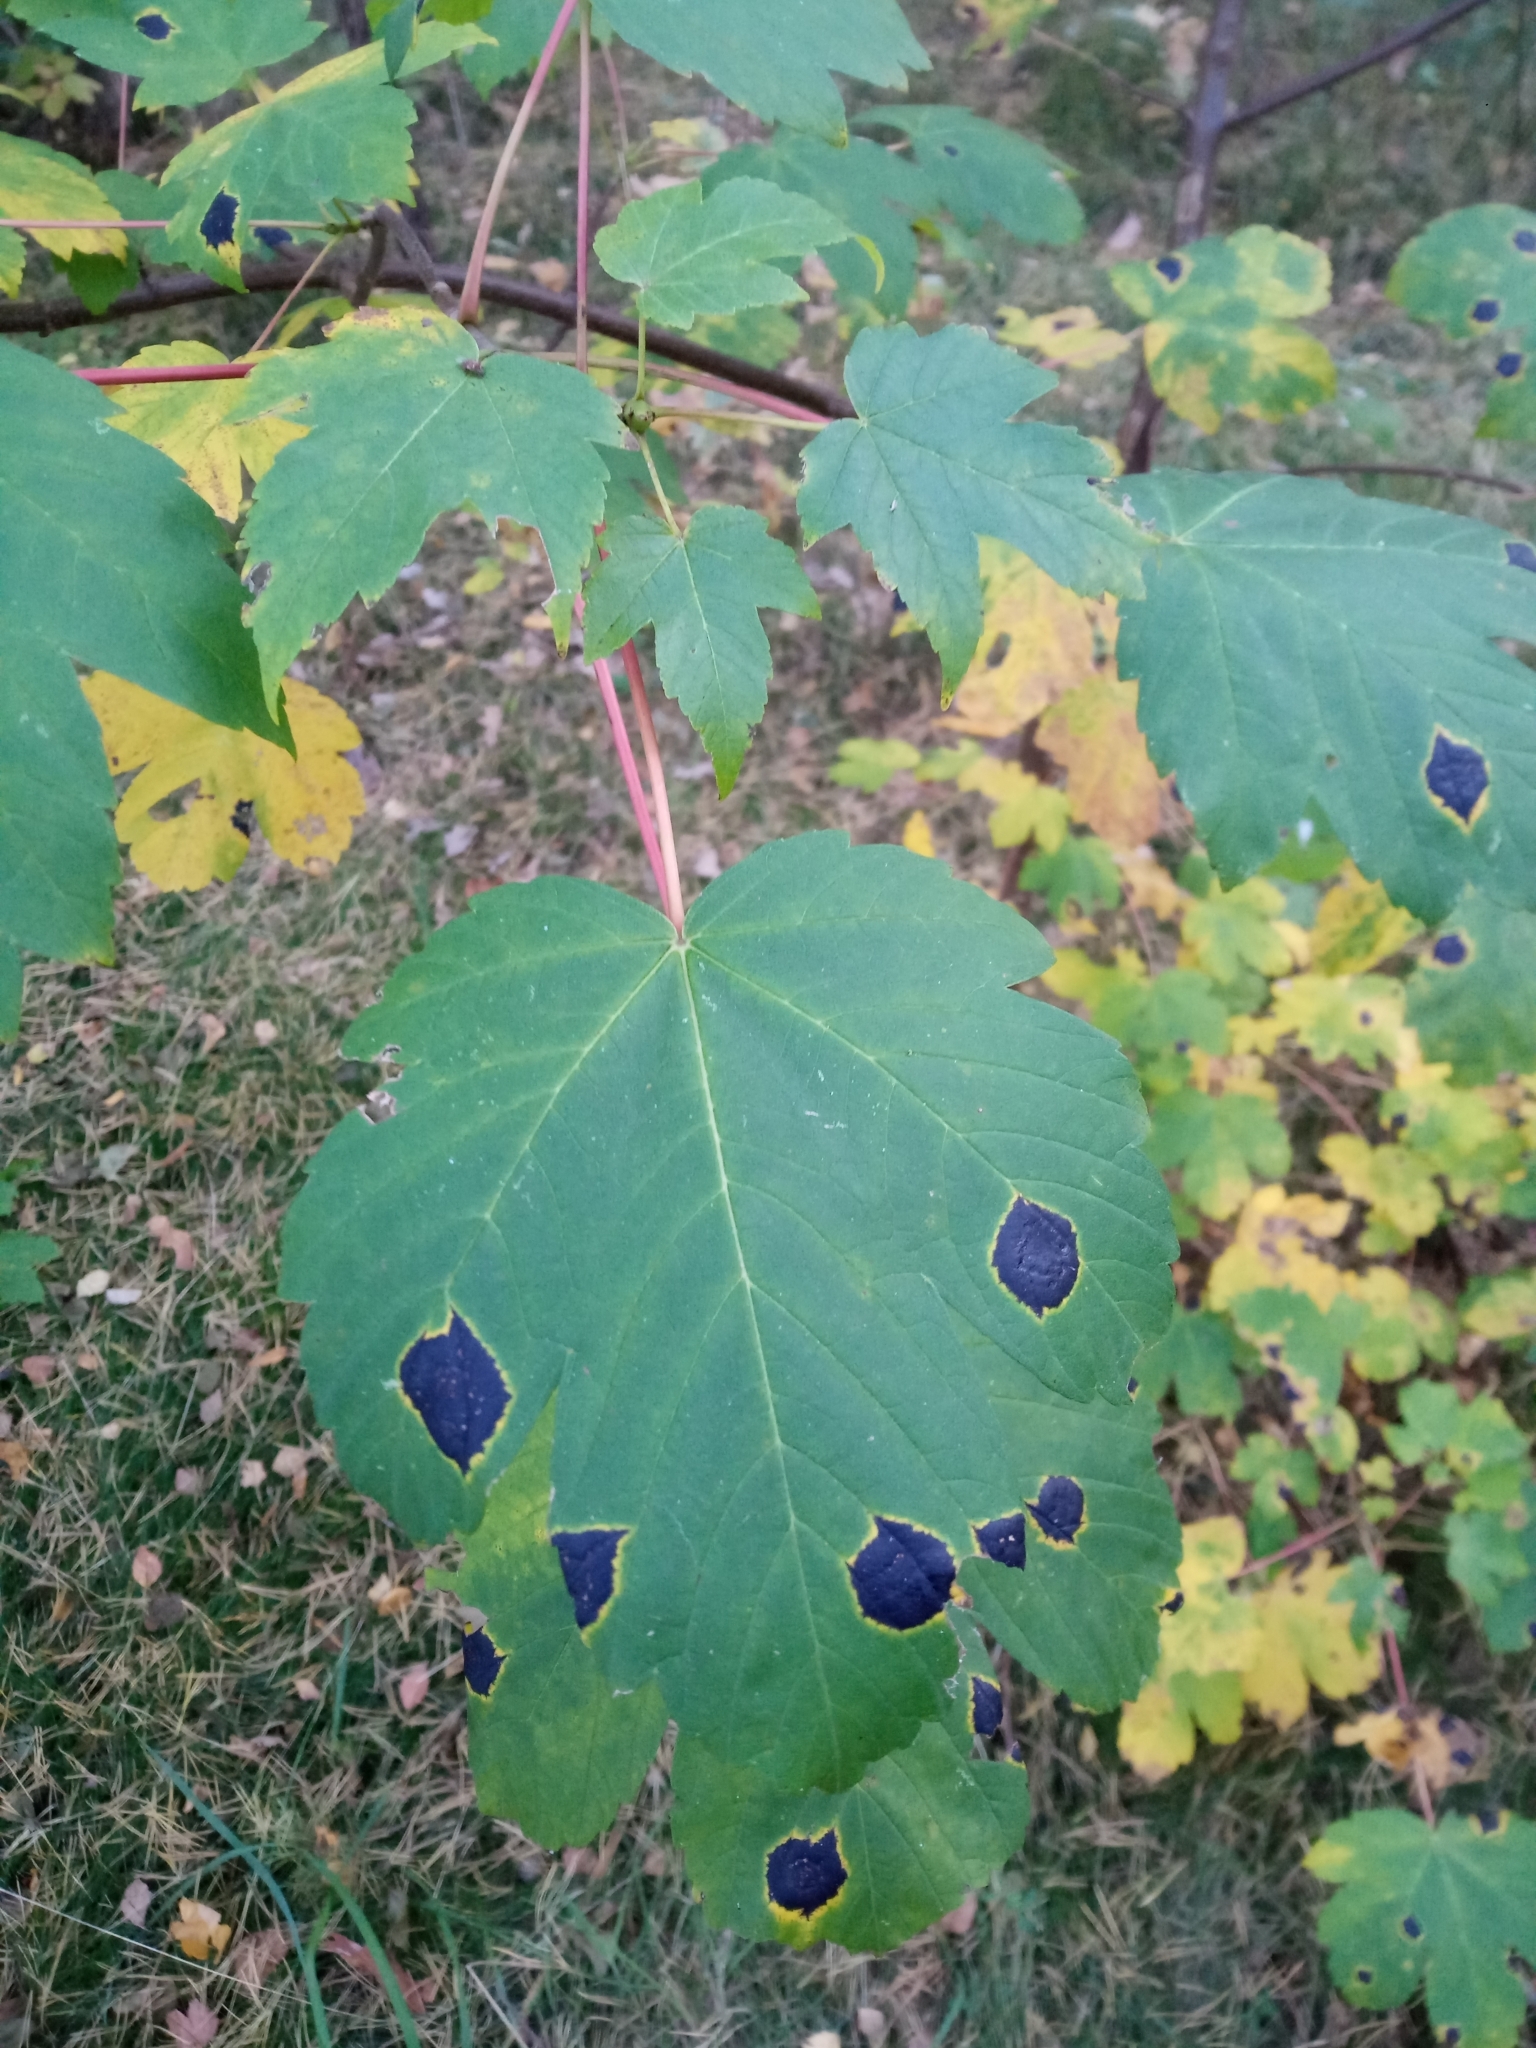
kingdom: Fungi
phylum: Ascomycota
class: Leotiomycetes
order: Rhytismatales
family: Rhytismataceae
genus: Rhytisma
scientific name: Rhytisma acerinum
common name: European tar spot
